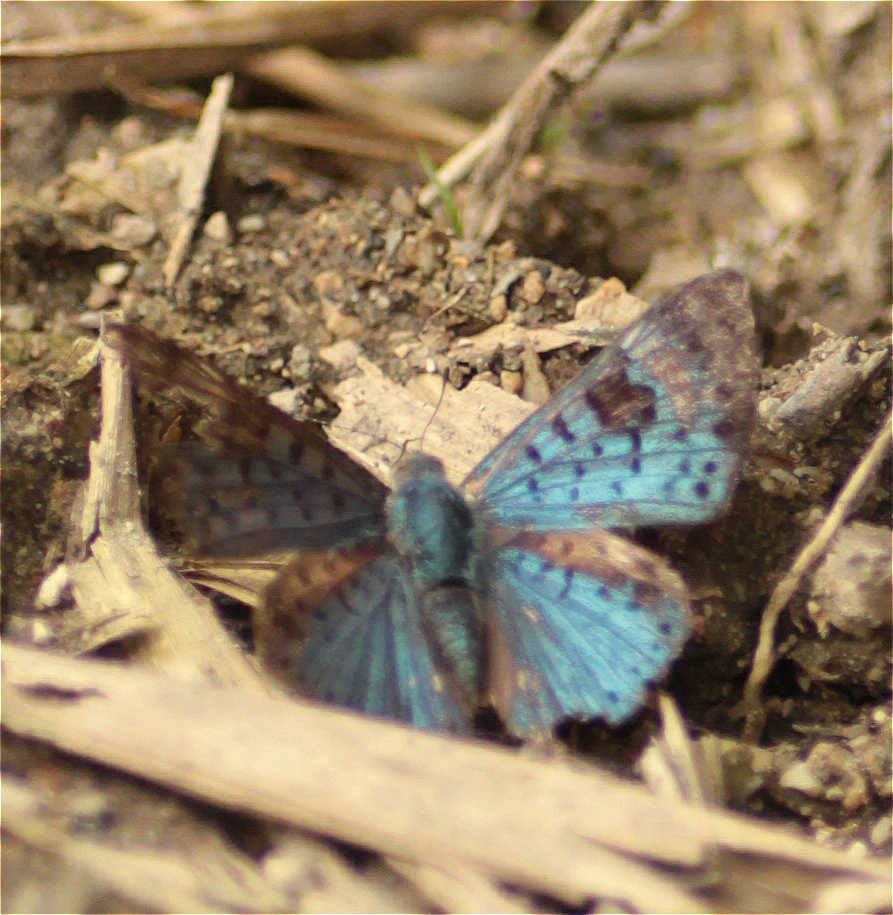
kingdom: Animalia
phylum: Arthropoda
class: Insecta
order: Lepidoptera
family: Riodinidae
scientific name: Riodinidae
